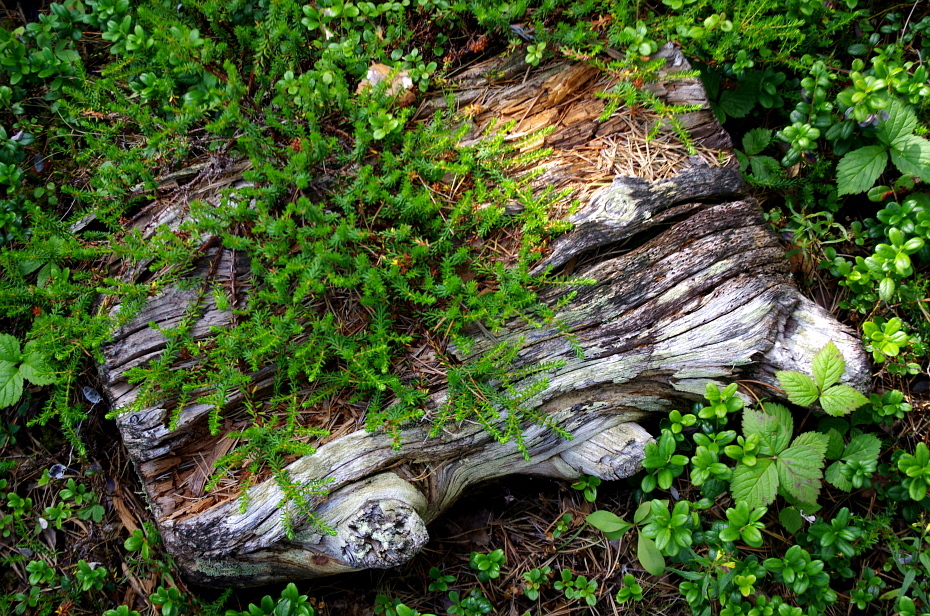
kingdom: Plantae
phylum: Tracheophyta
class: Magnoliopsida
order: Ericales
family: Primulaceae
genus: Lysimachia
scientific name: Lysimachia europaea
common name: Arctic starflower
